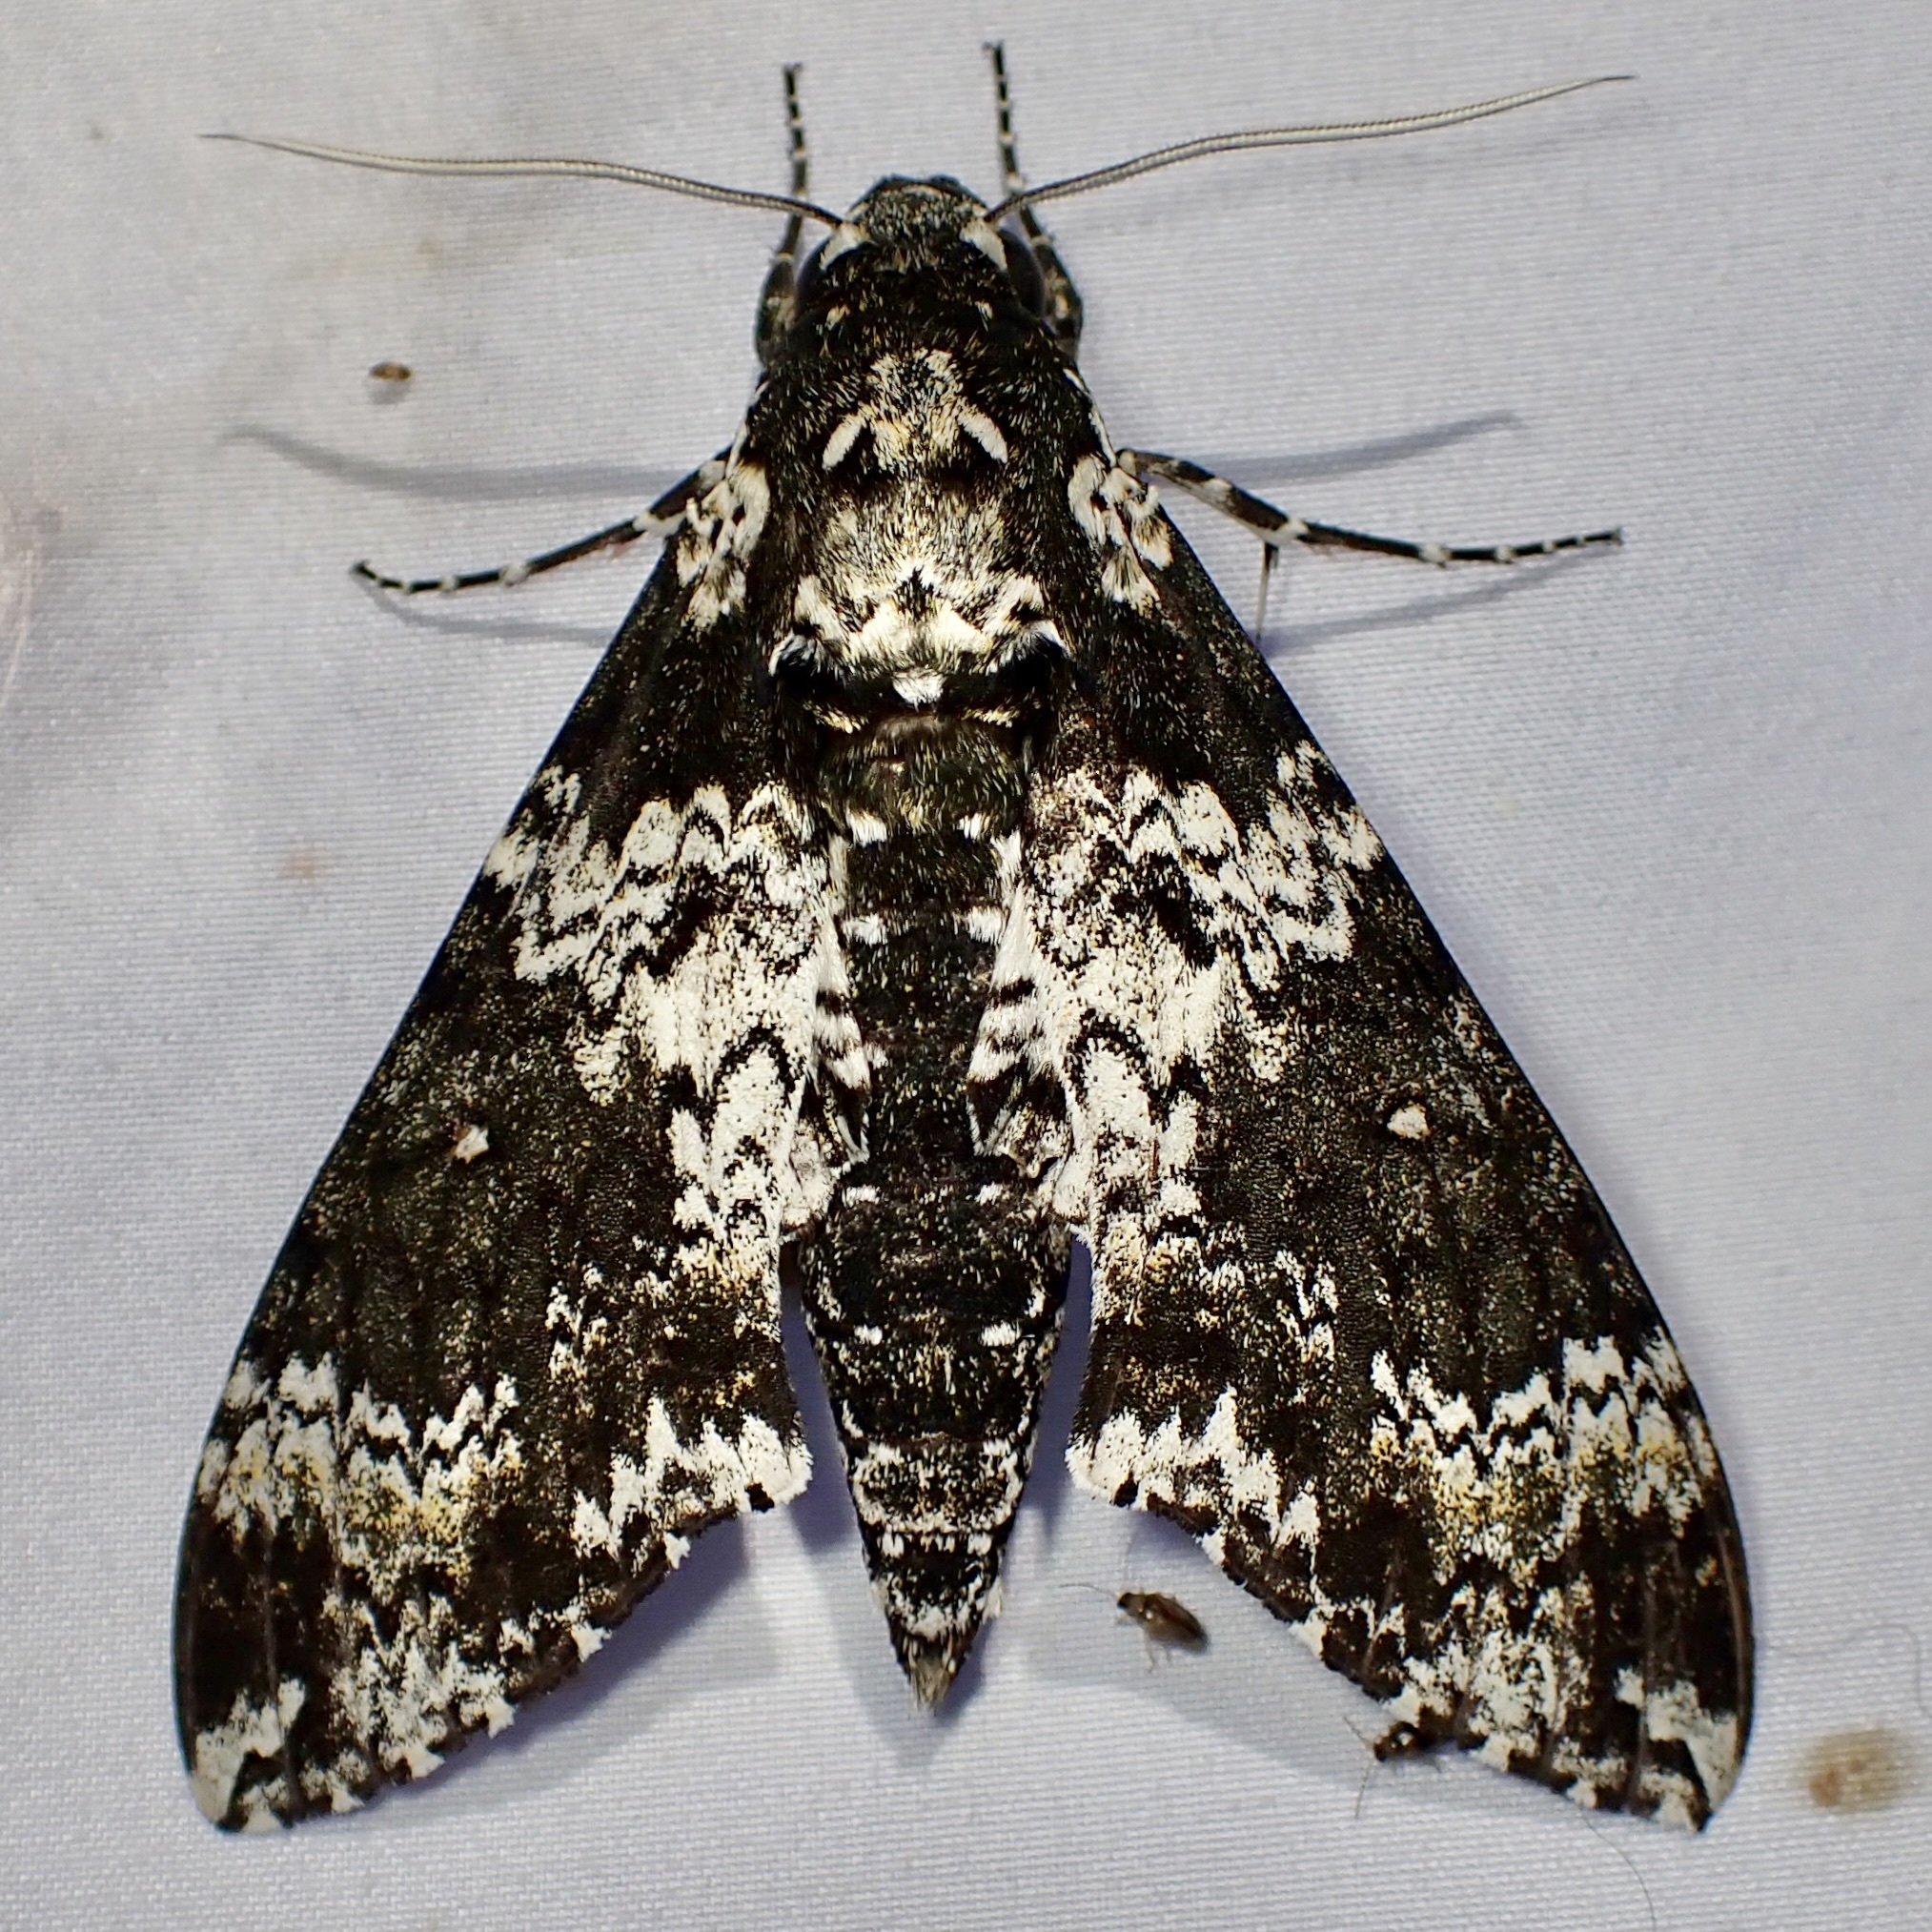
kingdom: Animalia
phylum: Arthropoda
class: Insecta
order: Lepidoptera
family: Sphingidae
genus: Manduca
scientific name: Manduca rustica
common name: Rustic sphinx
